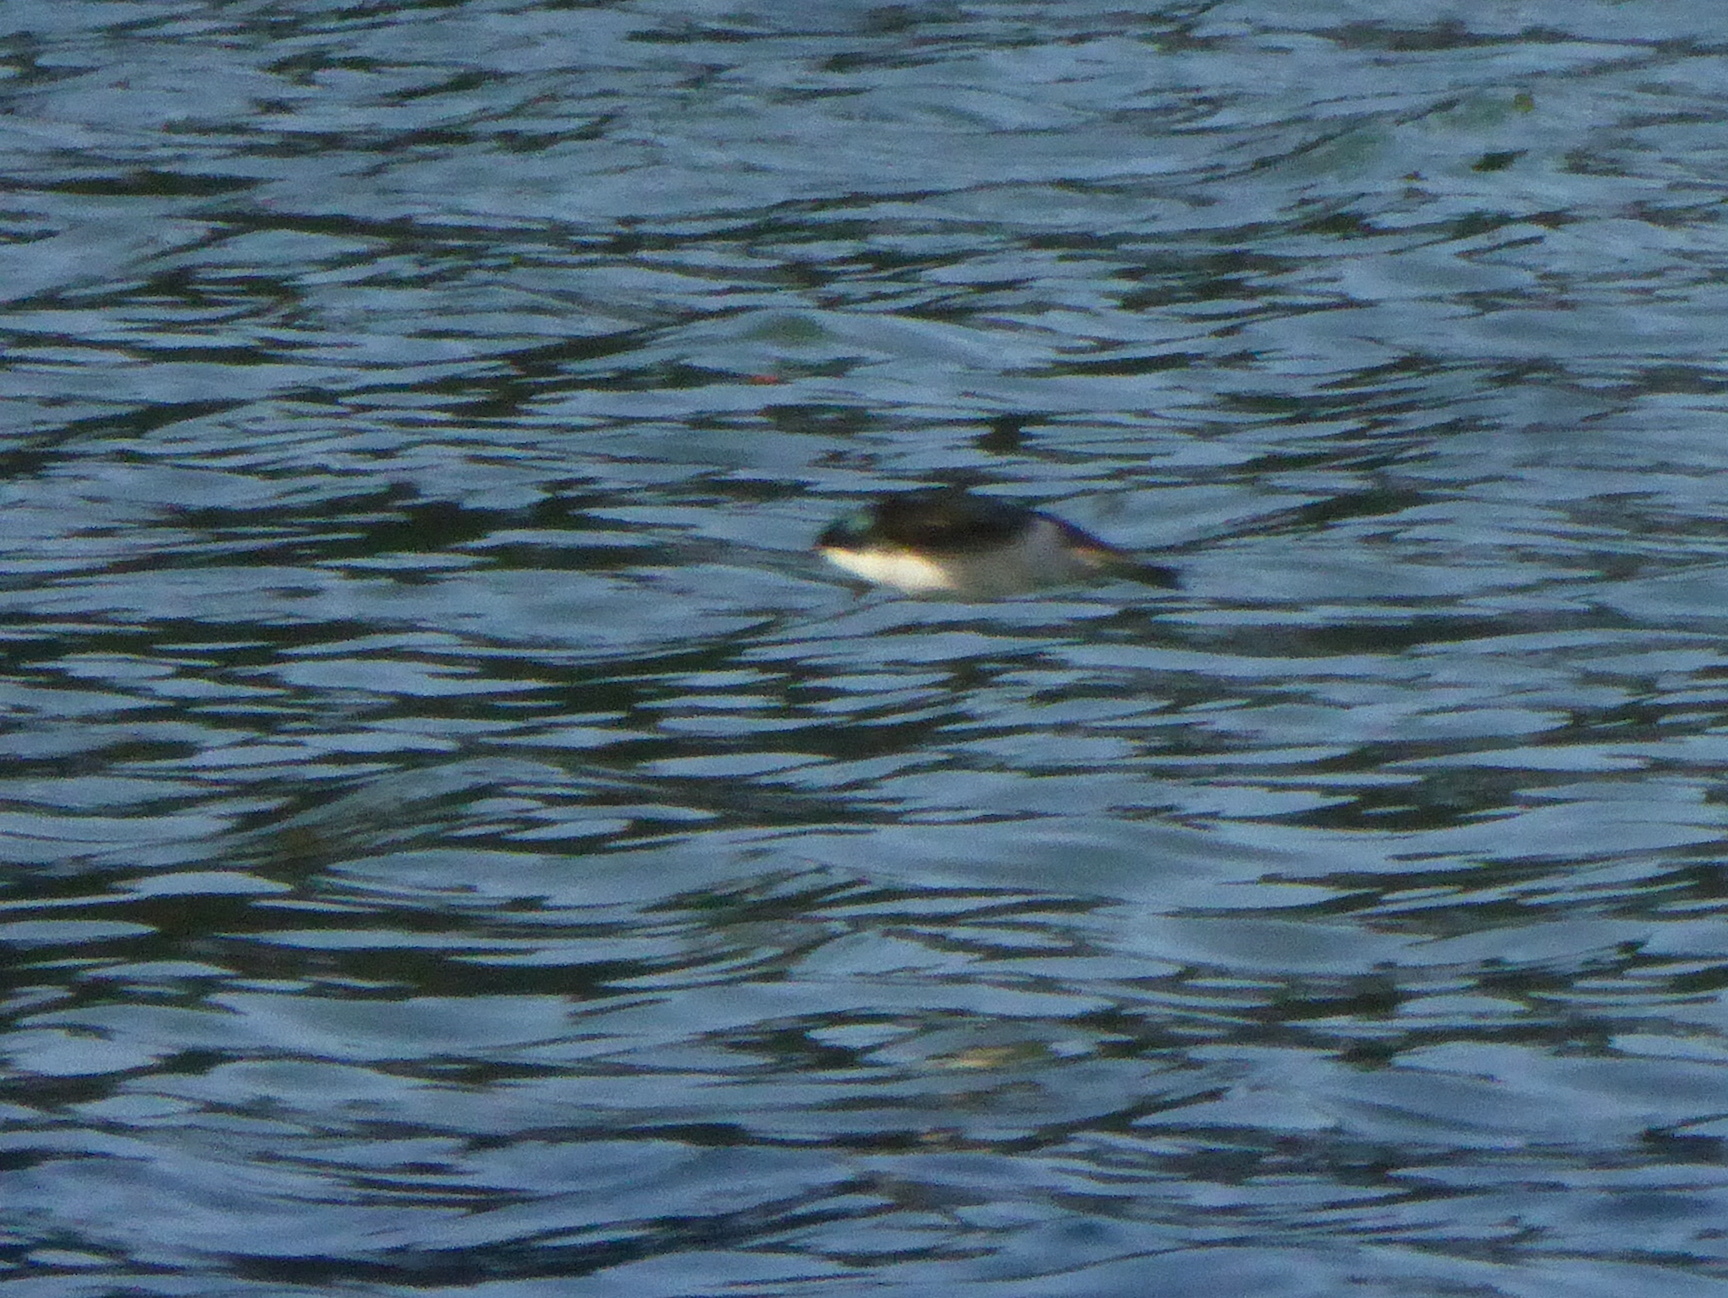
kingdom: Animalia
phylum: Chordata
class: Aves
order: Passeriformes
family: Hirundinidae
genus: Tachycineta
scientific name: Tachycineta bicolor
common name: Tree swallow
